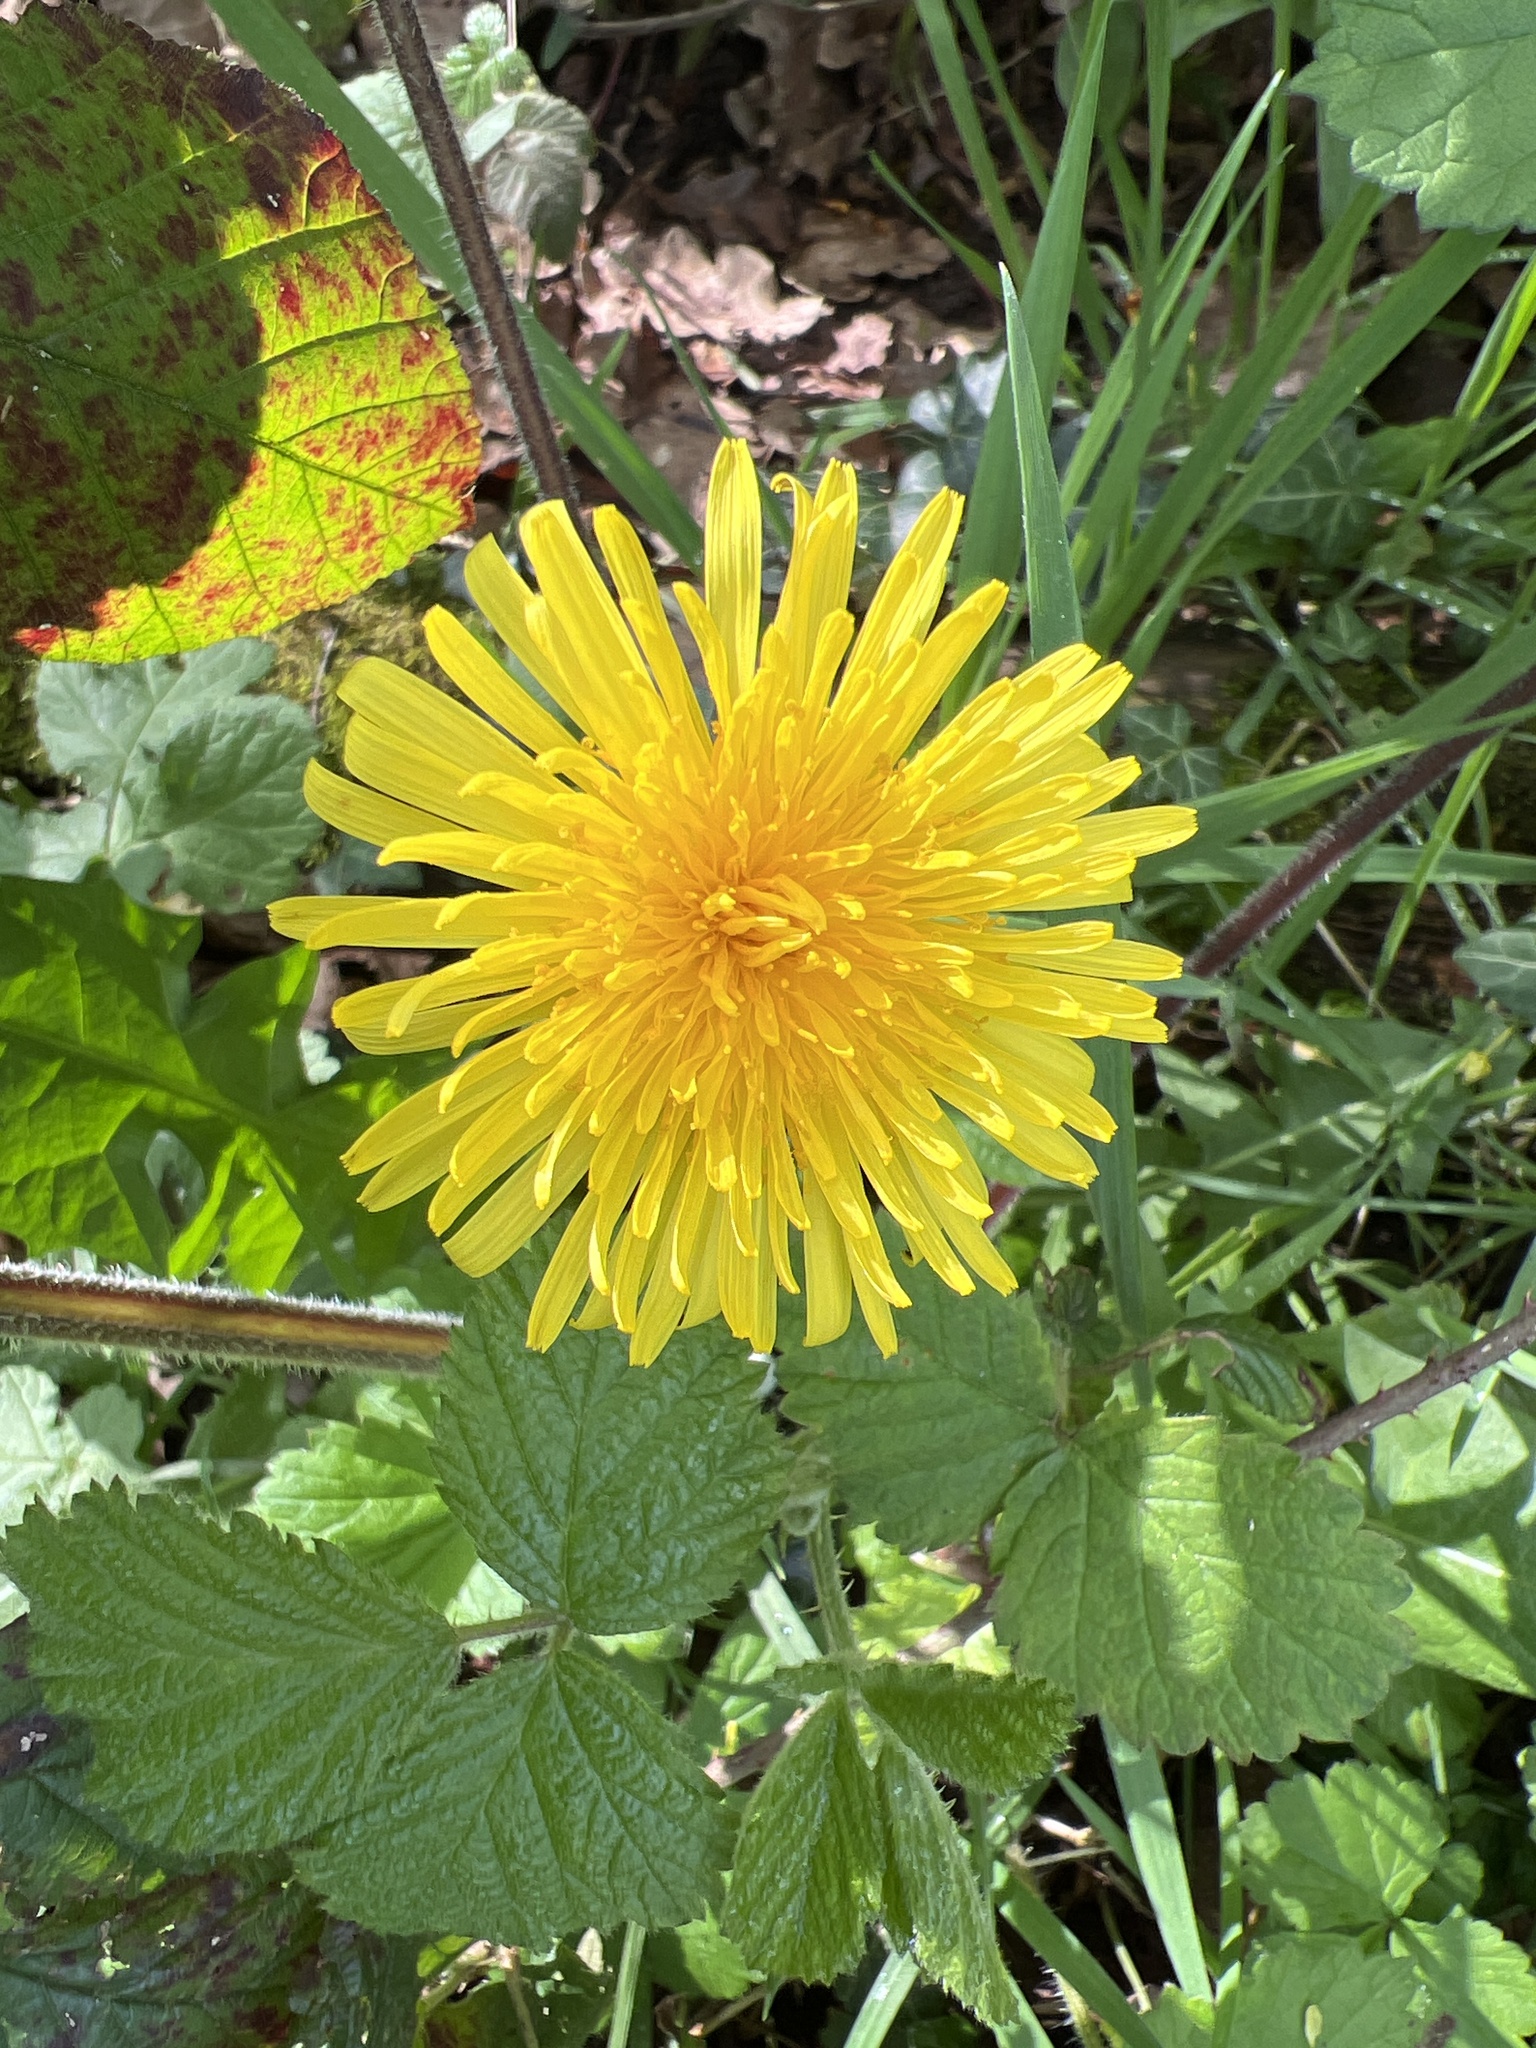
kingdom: Plantae
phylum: Tracheophyta
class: Magnoliopsida
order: Asterales
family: Asteraceae
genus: Taraxacum
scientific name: Taraxacum officinale
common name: Common dandelion
